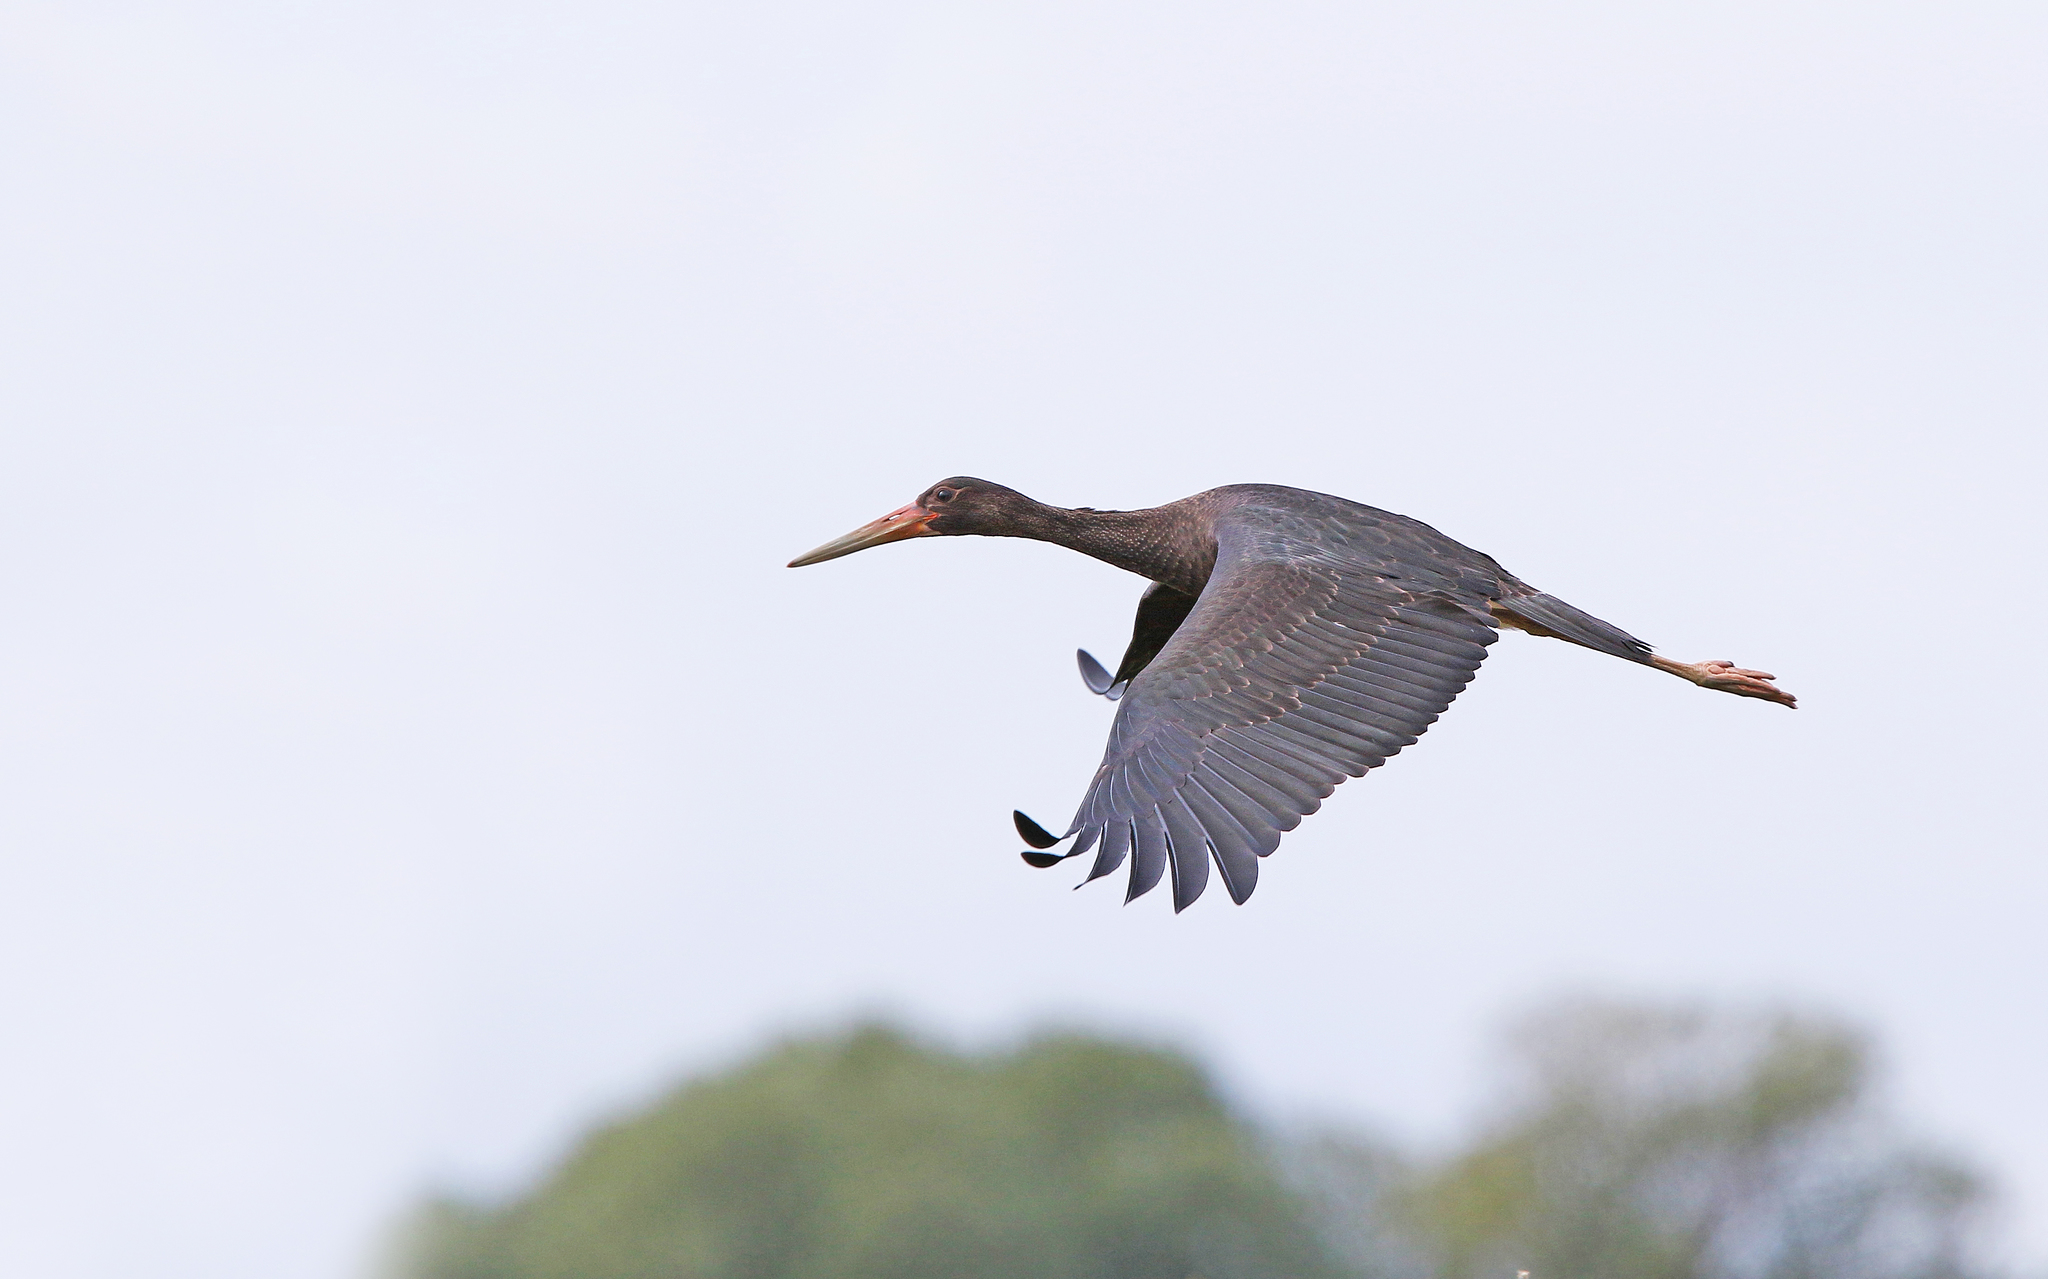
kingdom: Animalia
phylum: Chordata
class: Aves
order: Ciconiiformes
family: Ciconiidae
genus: Ciconia
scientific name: Ciconia nigra
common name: Black stork
